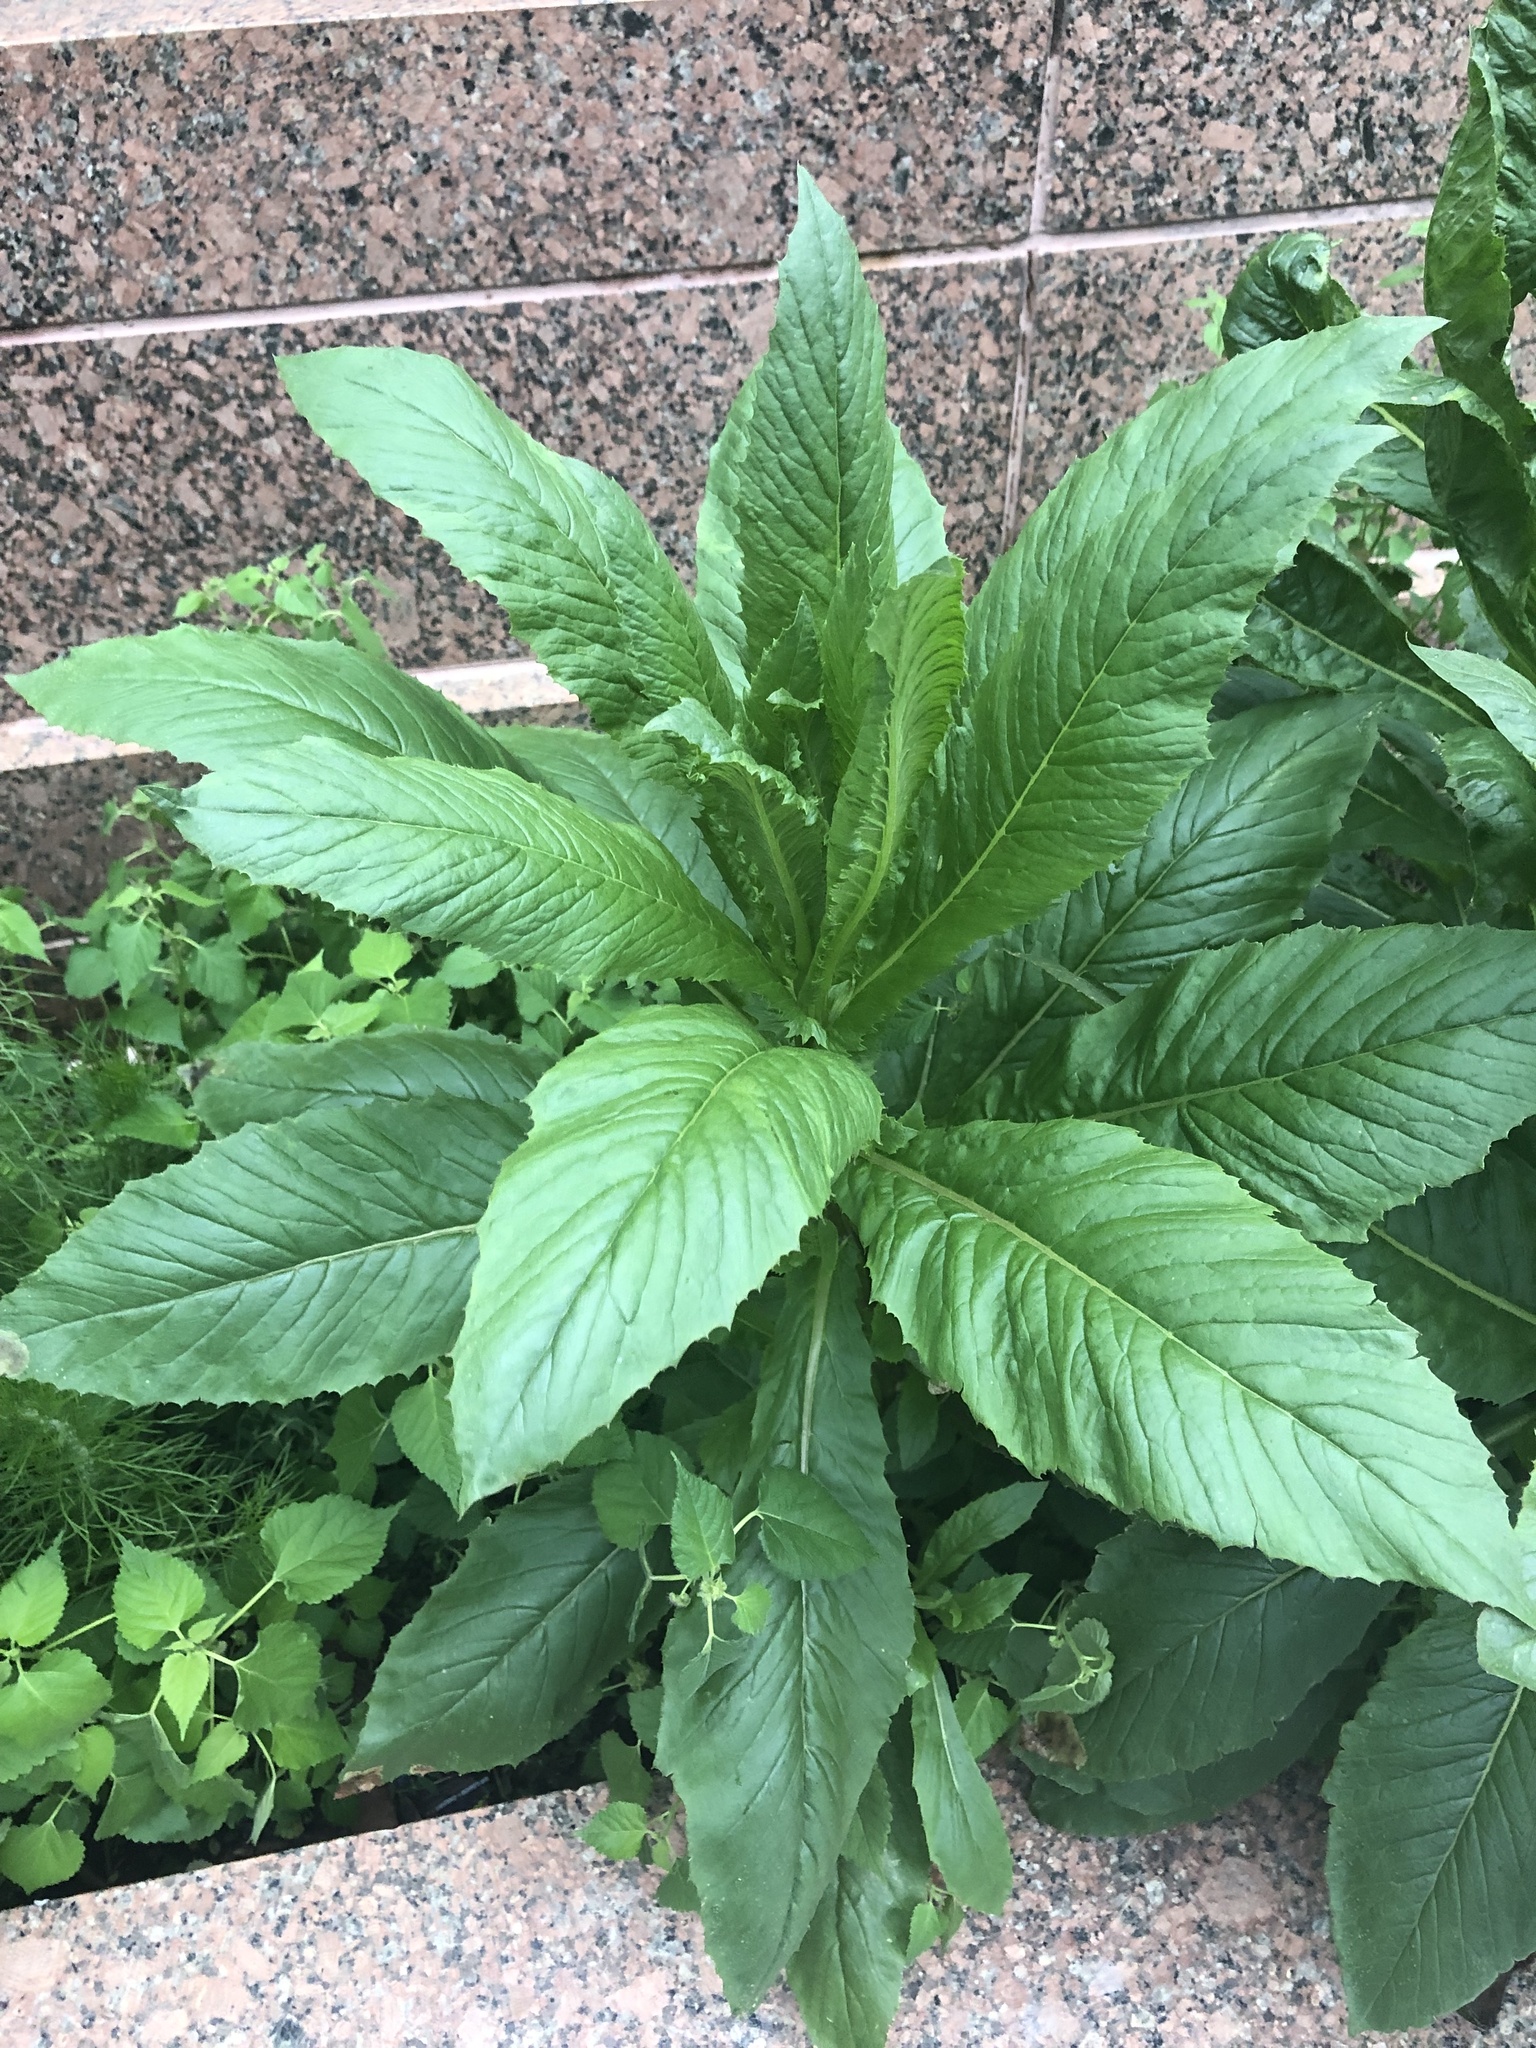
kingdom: Plantae
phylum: Tracheophyta
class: Magnoliopsida
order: Asterales
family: Asteraceae
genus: Erechtites
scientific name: Erechtites hieraciifolius
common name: American burnweed
